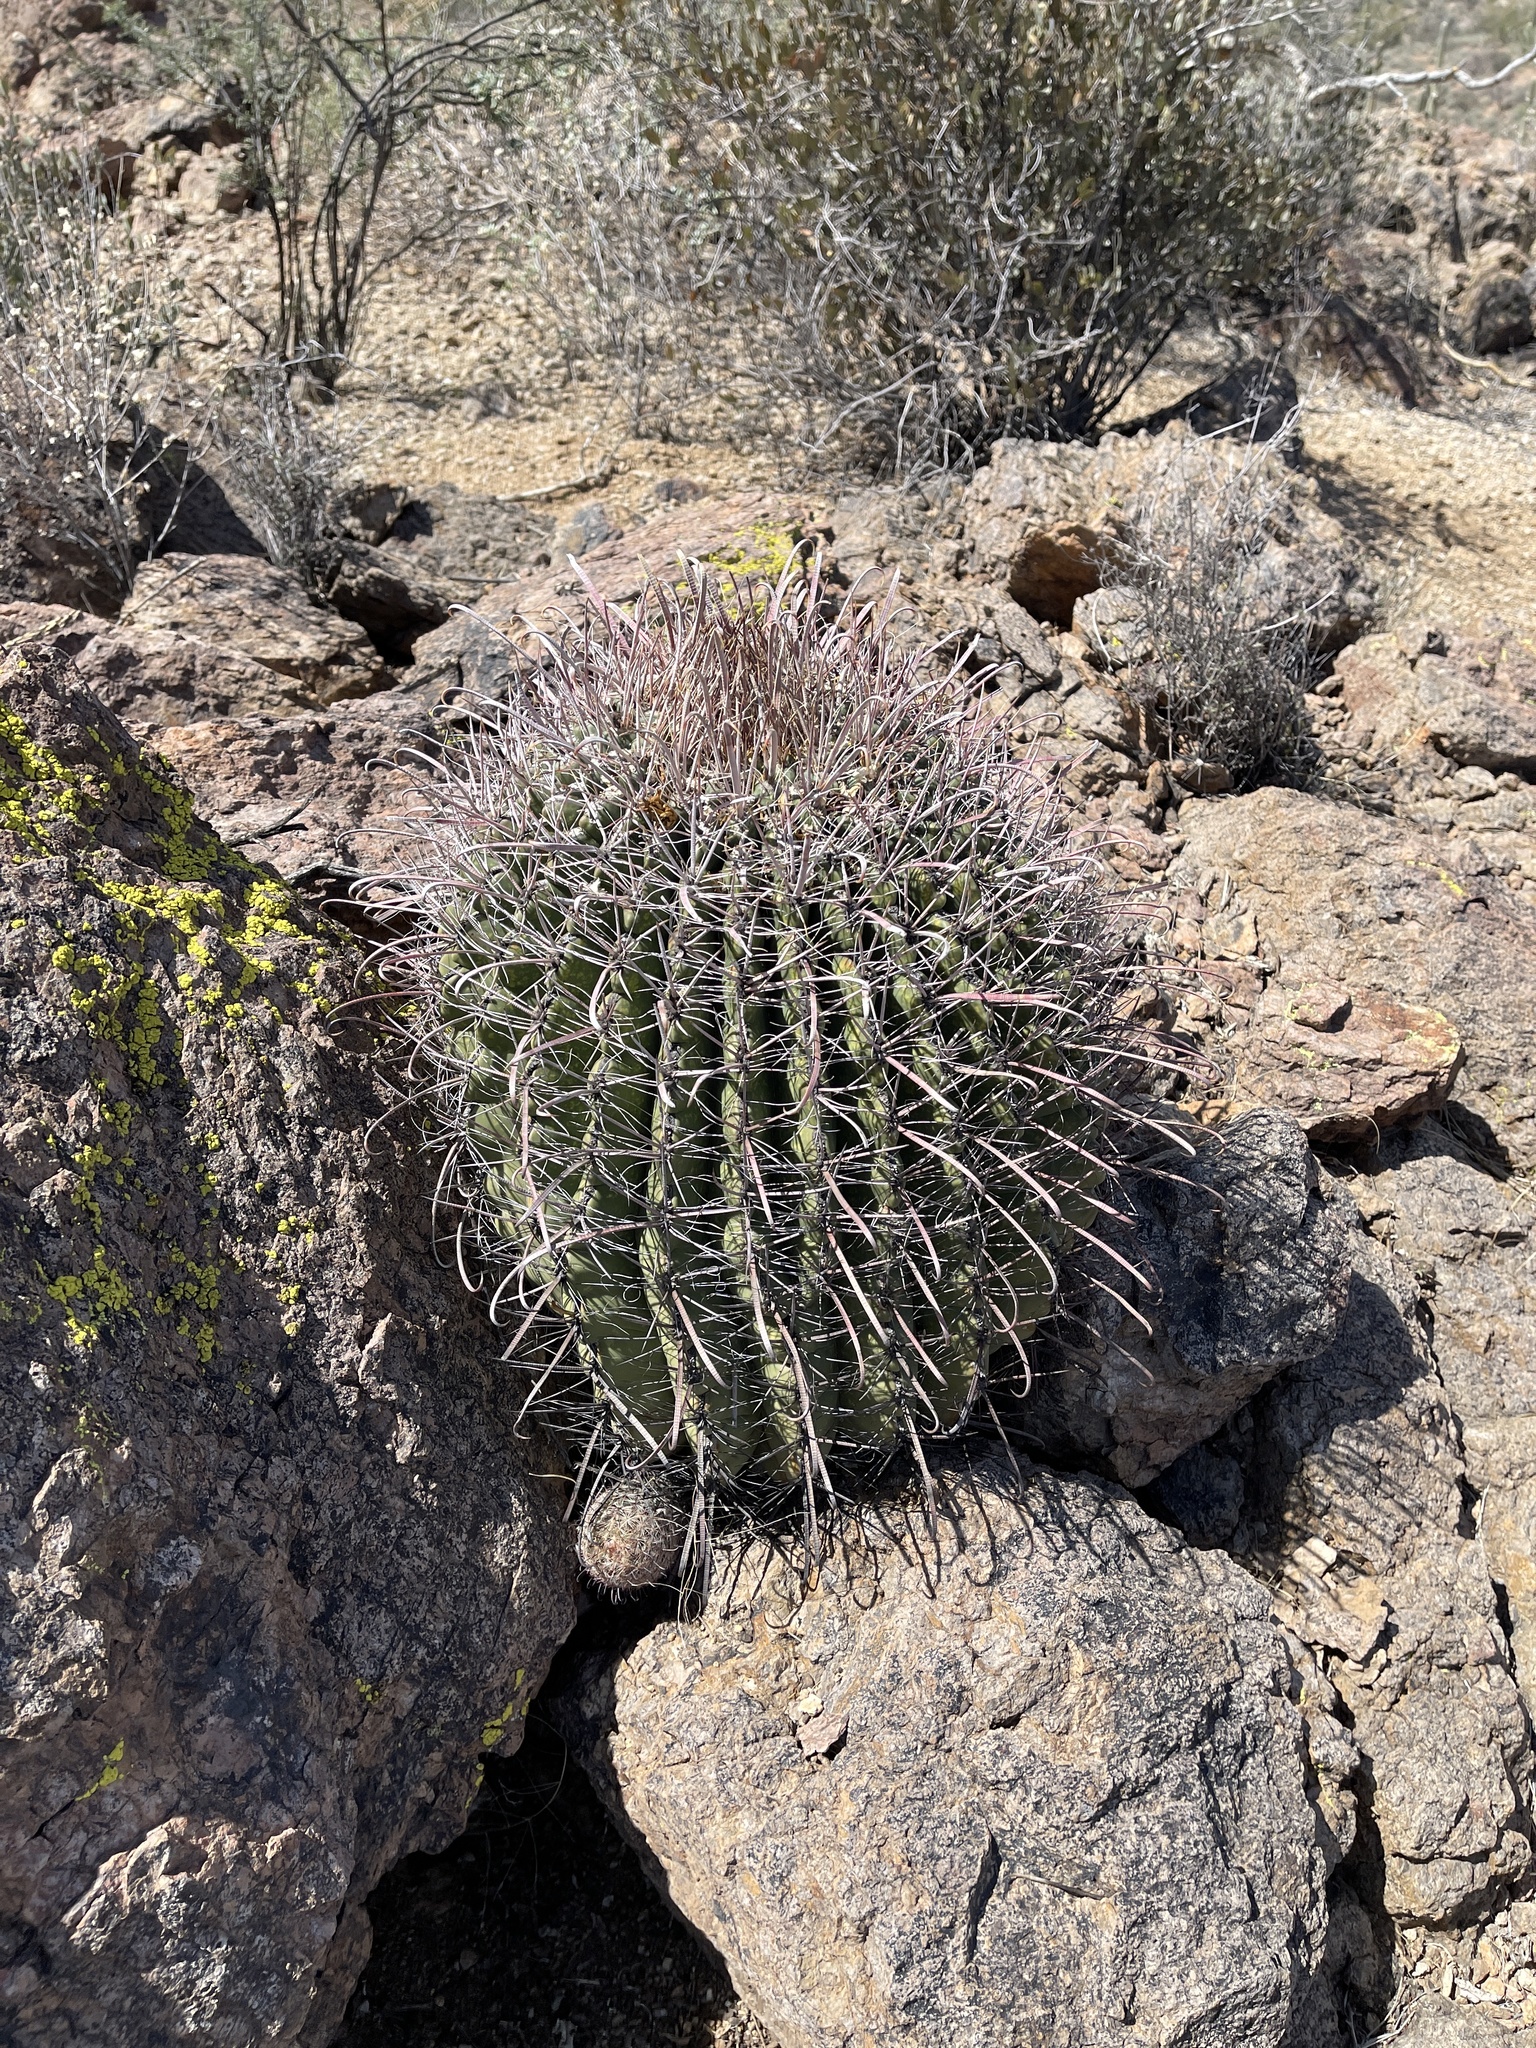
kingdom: Plantae
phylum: Tracheophyta
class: Magnoliopsida
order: Caryophyllales
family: Cactaceae
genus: Ferocactus
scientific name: Ferocactus wislizeni
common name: Candy barrel cactus
